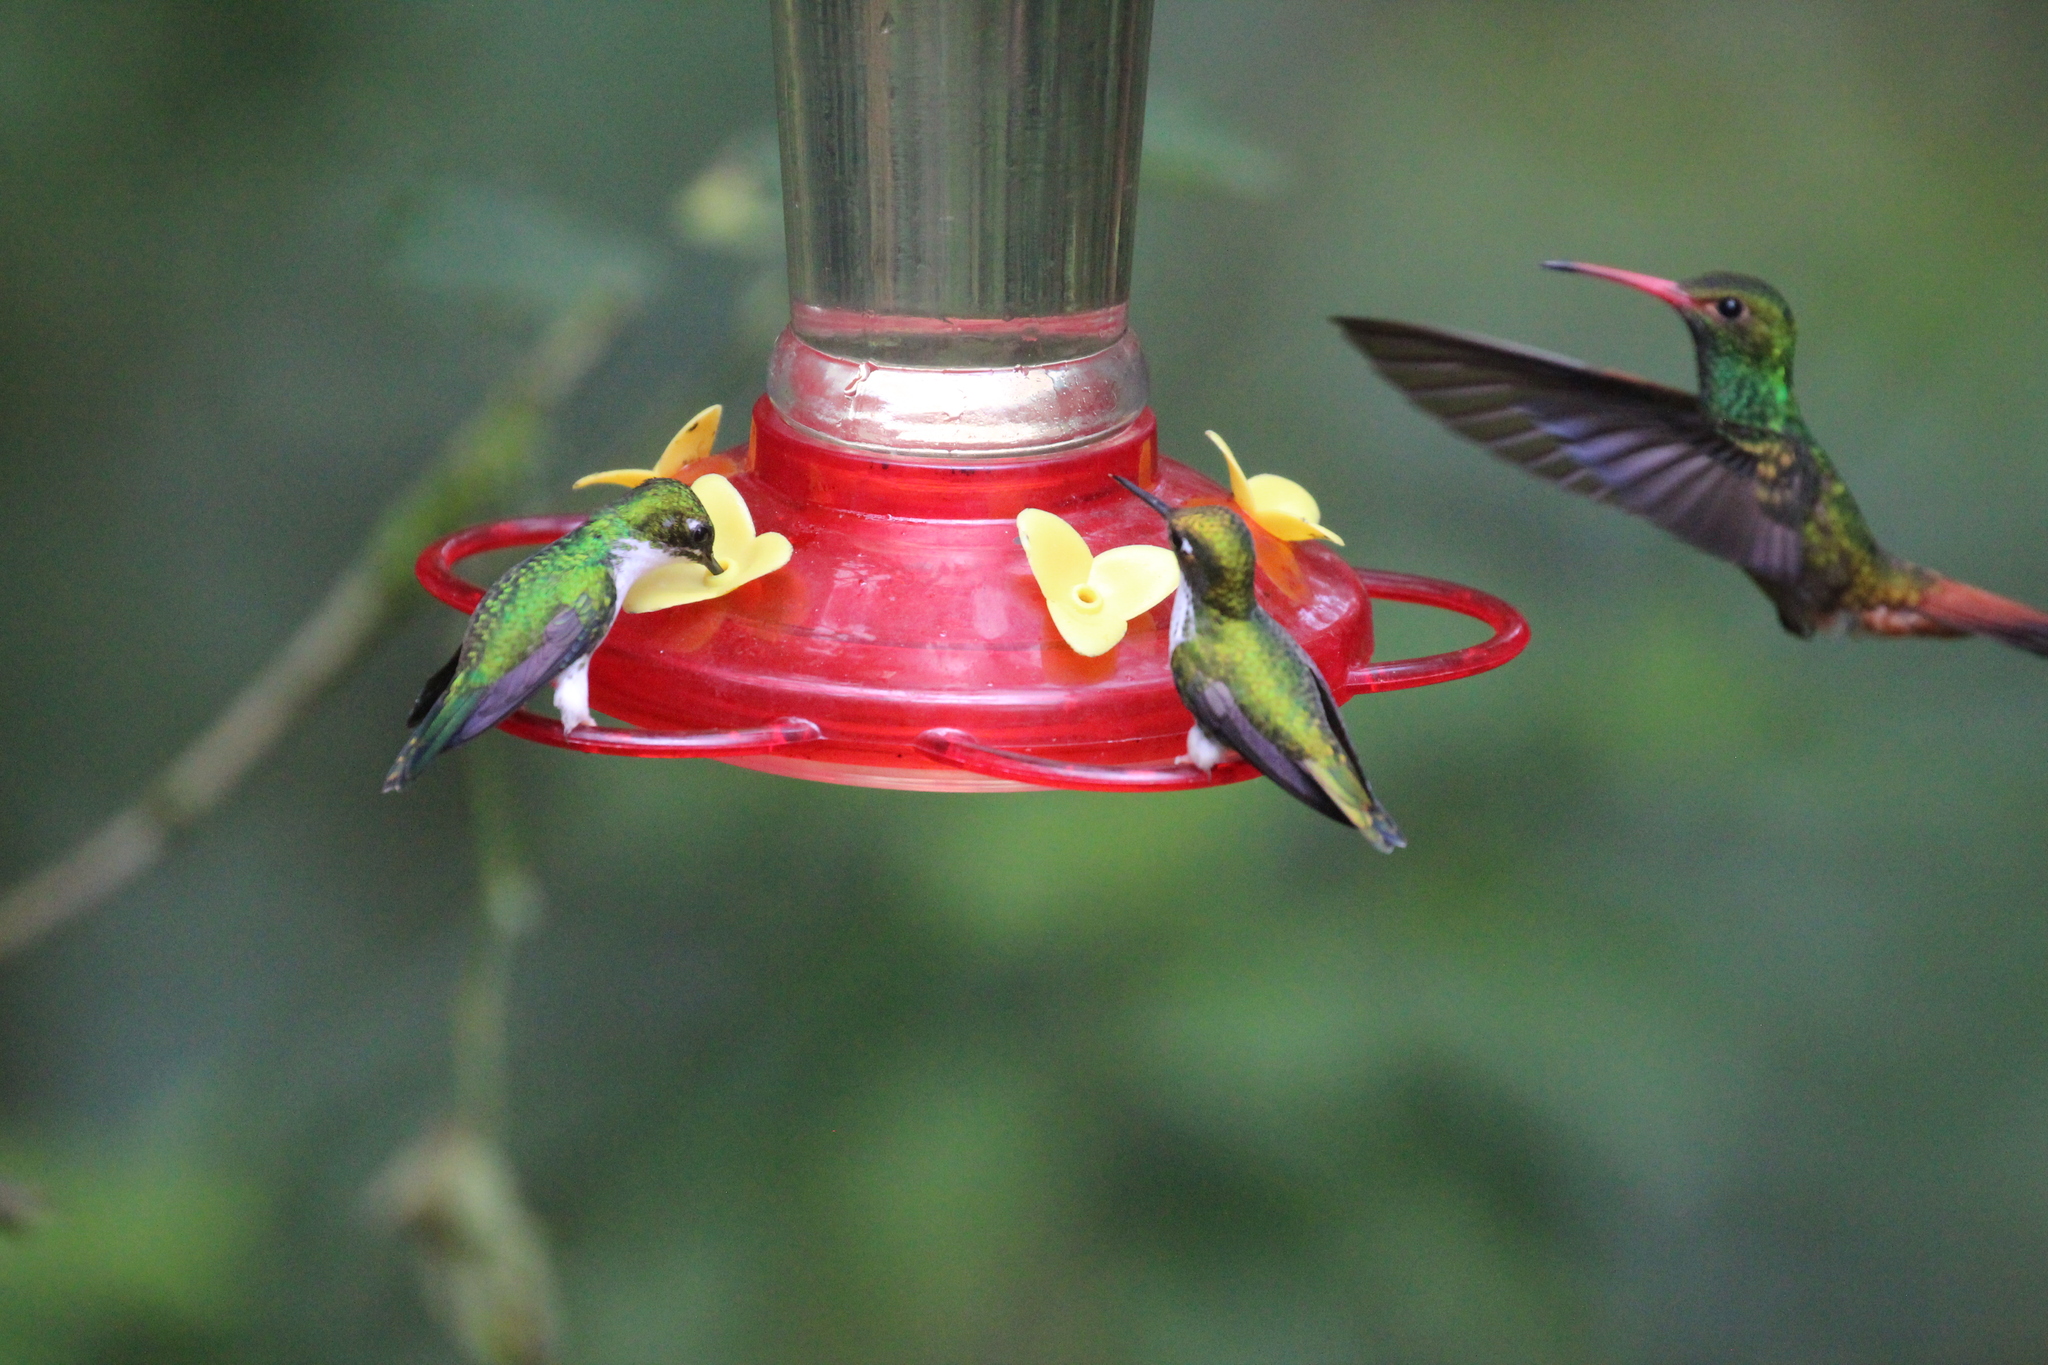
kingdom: Animalia
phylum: Chordata
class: Aves
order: Apodiformes
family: Trochilidae
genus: Amazilia
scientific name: Amazilia tzacatl
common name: Rufous-tailed hummingbird
